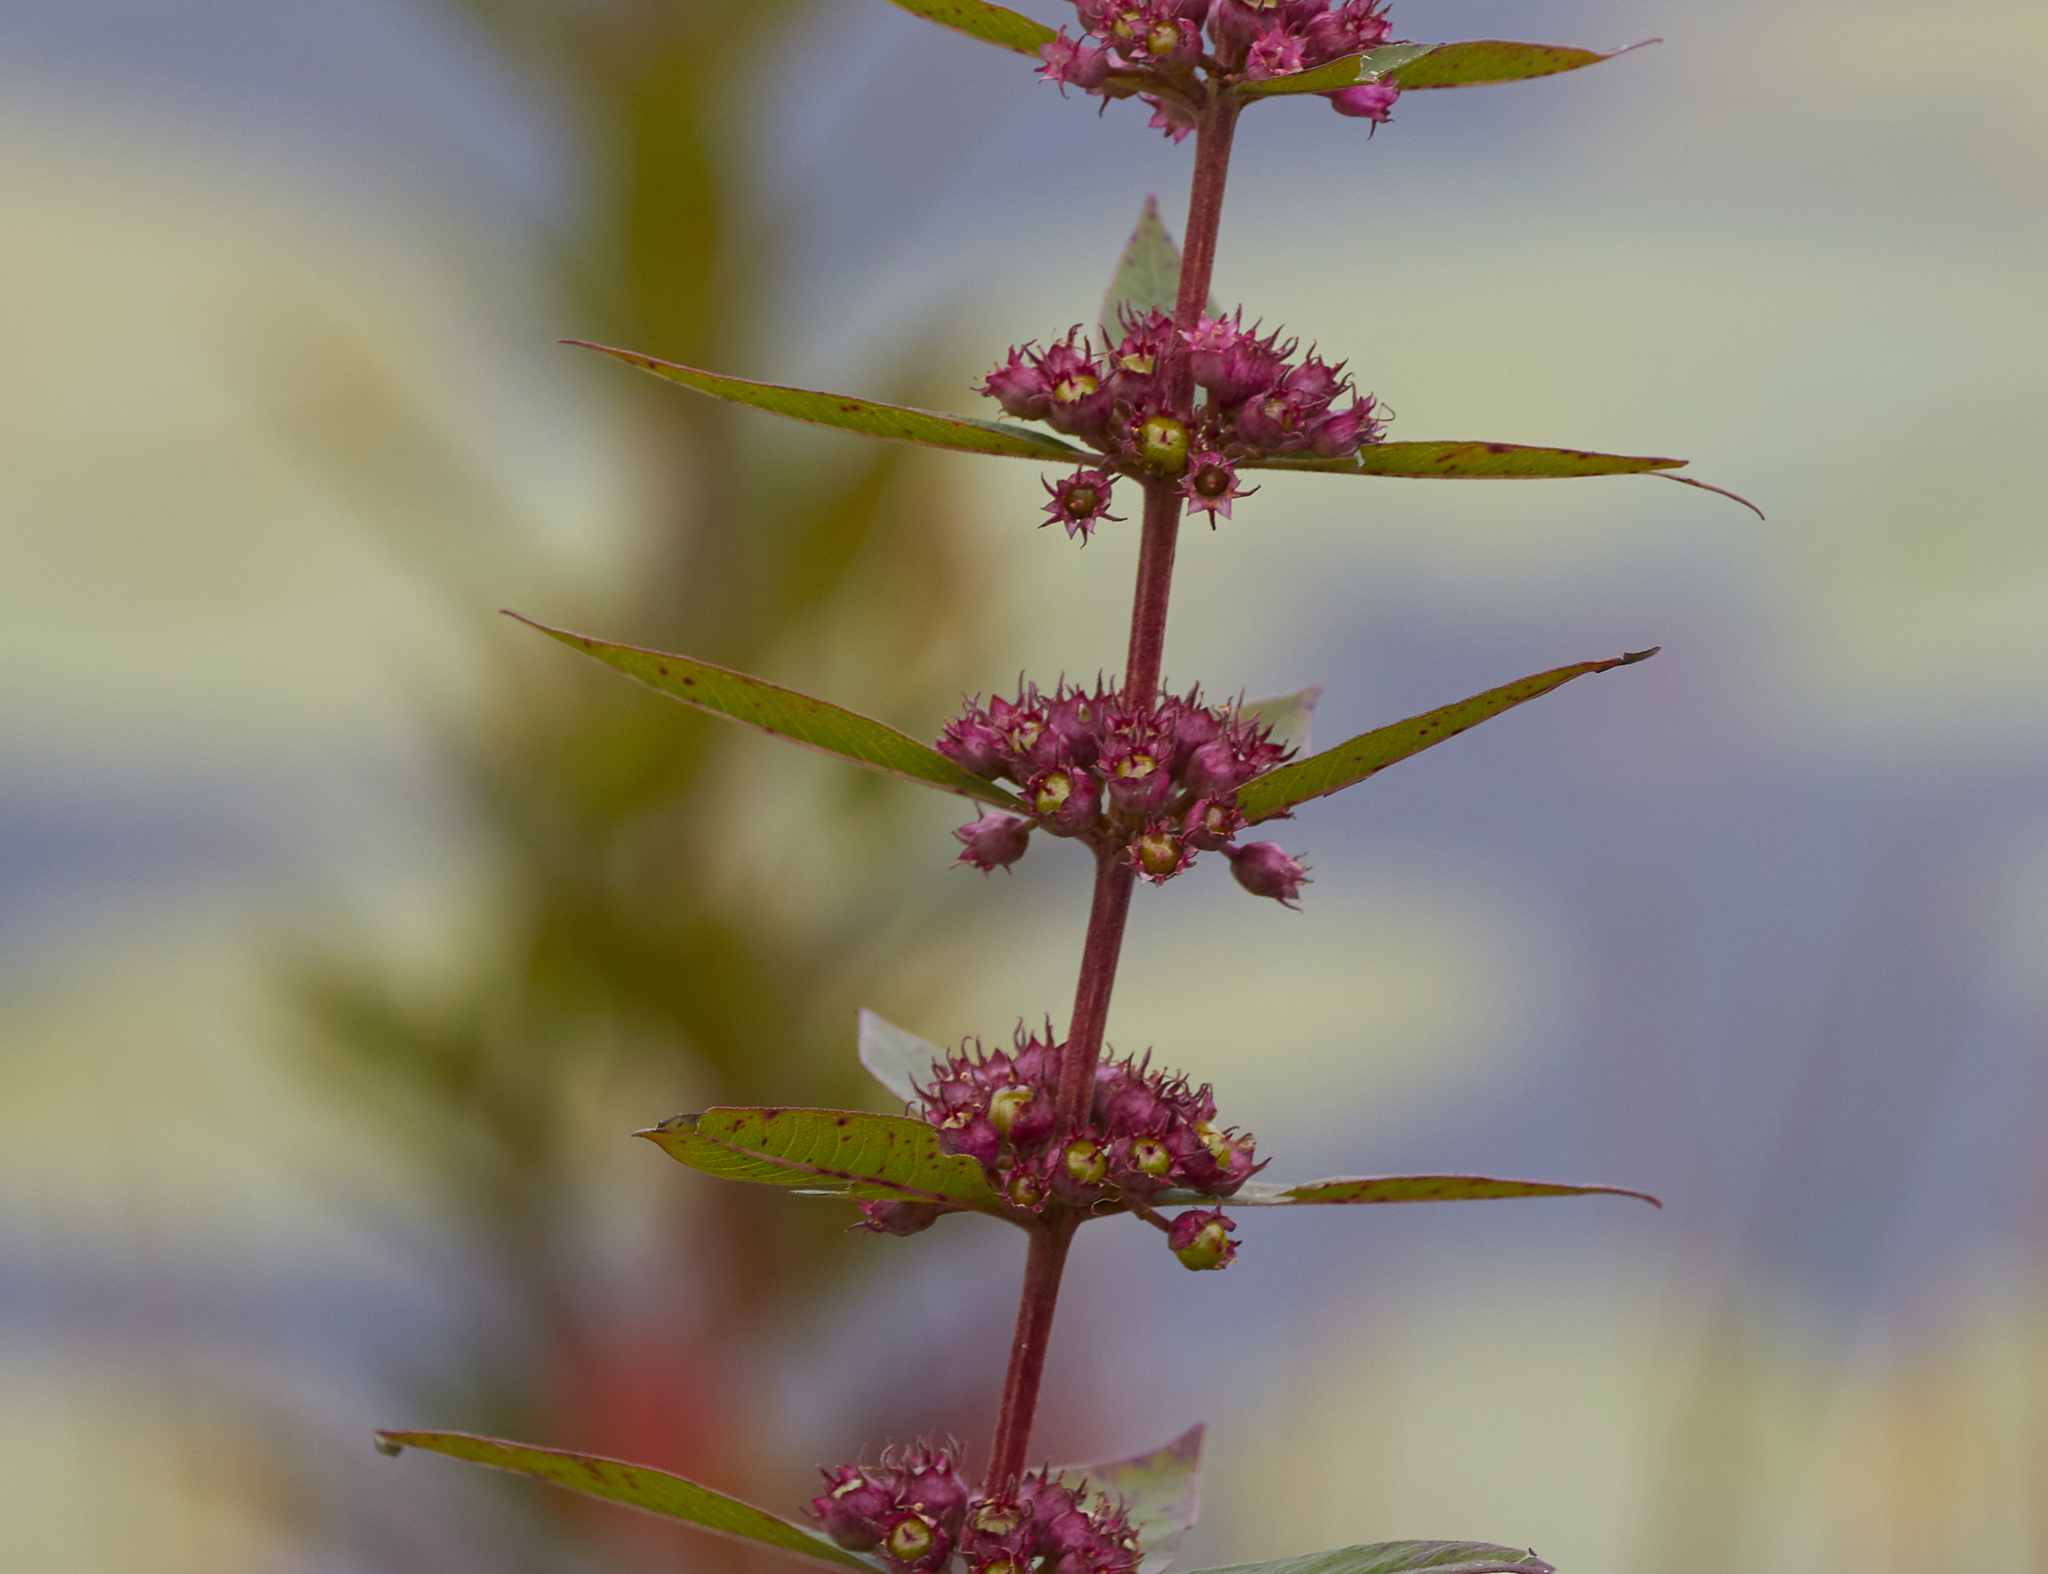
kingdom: Plantae
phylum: Tracheophyta
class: Magnoliopsida
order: Myrtales
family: Lythraceae
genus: Decodon
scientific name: Decodon verticillatus
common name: Hairy swamp loosestrife
